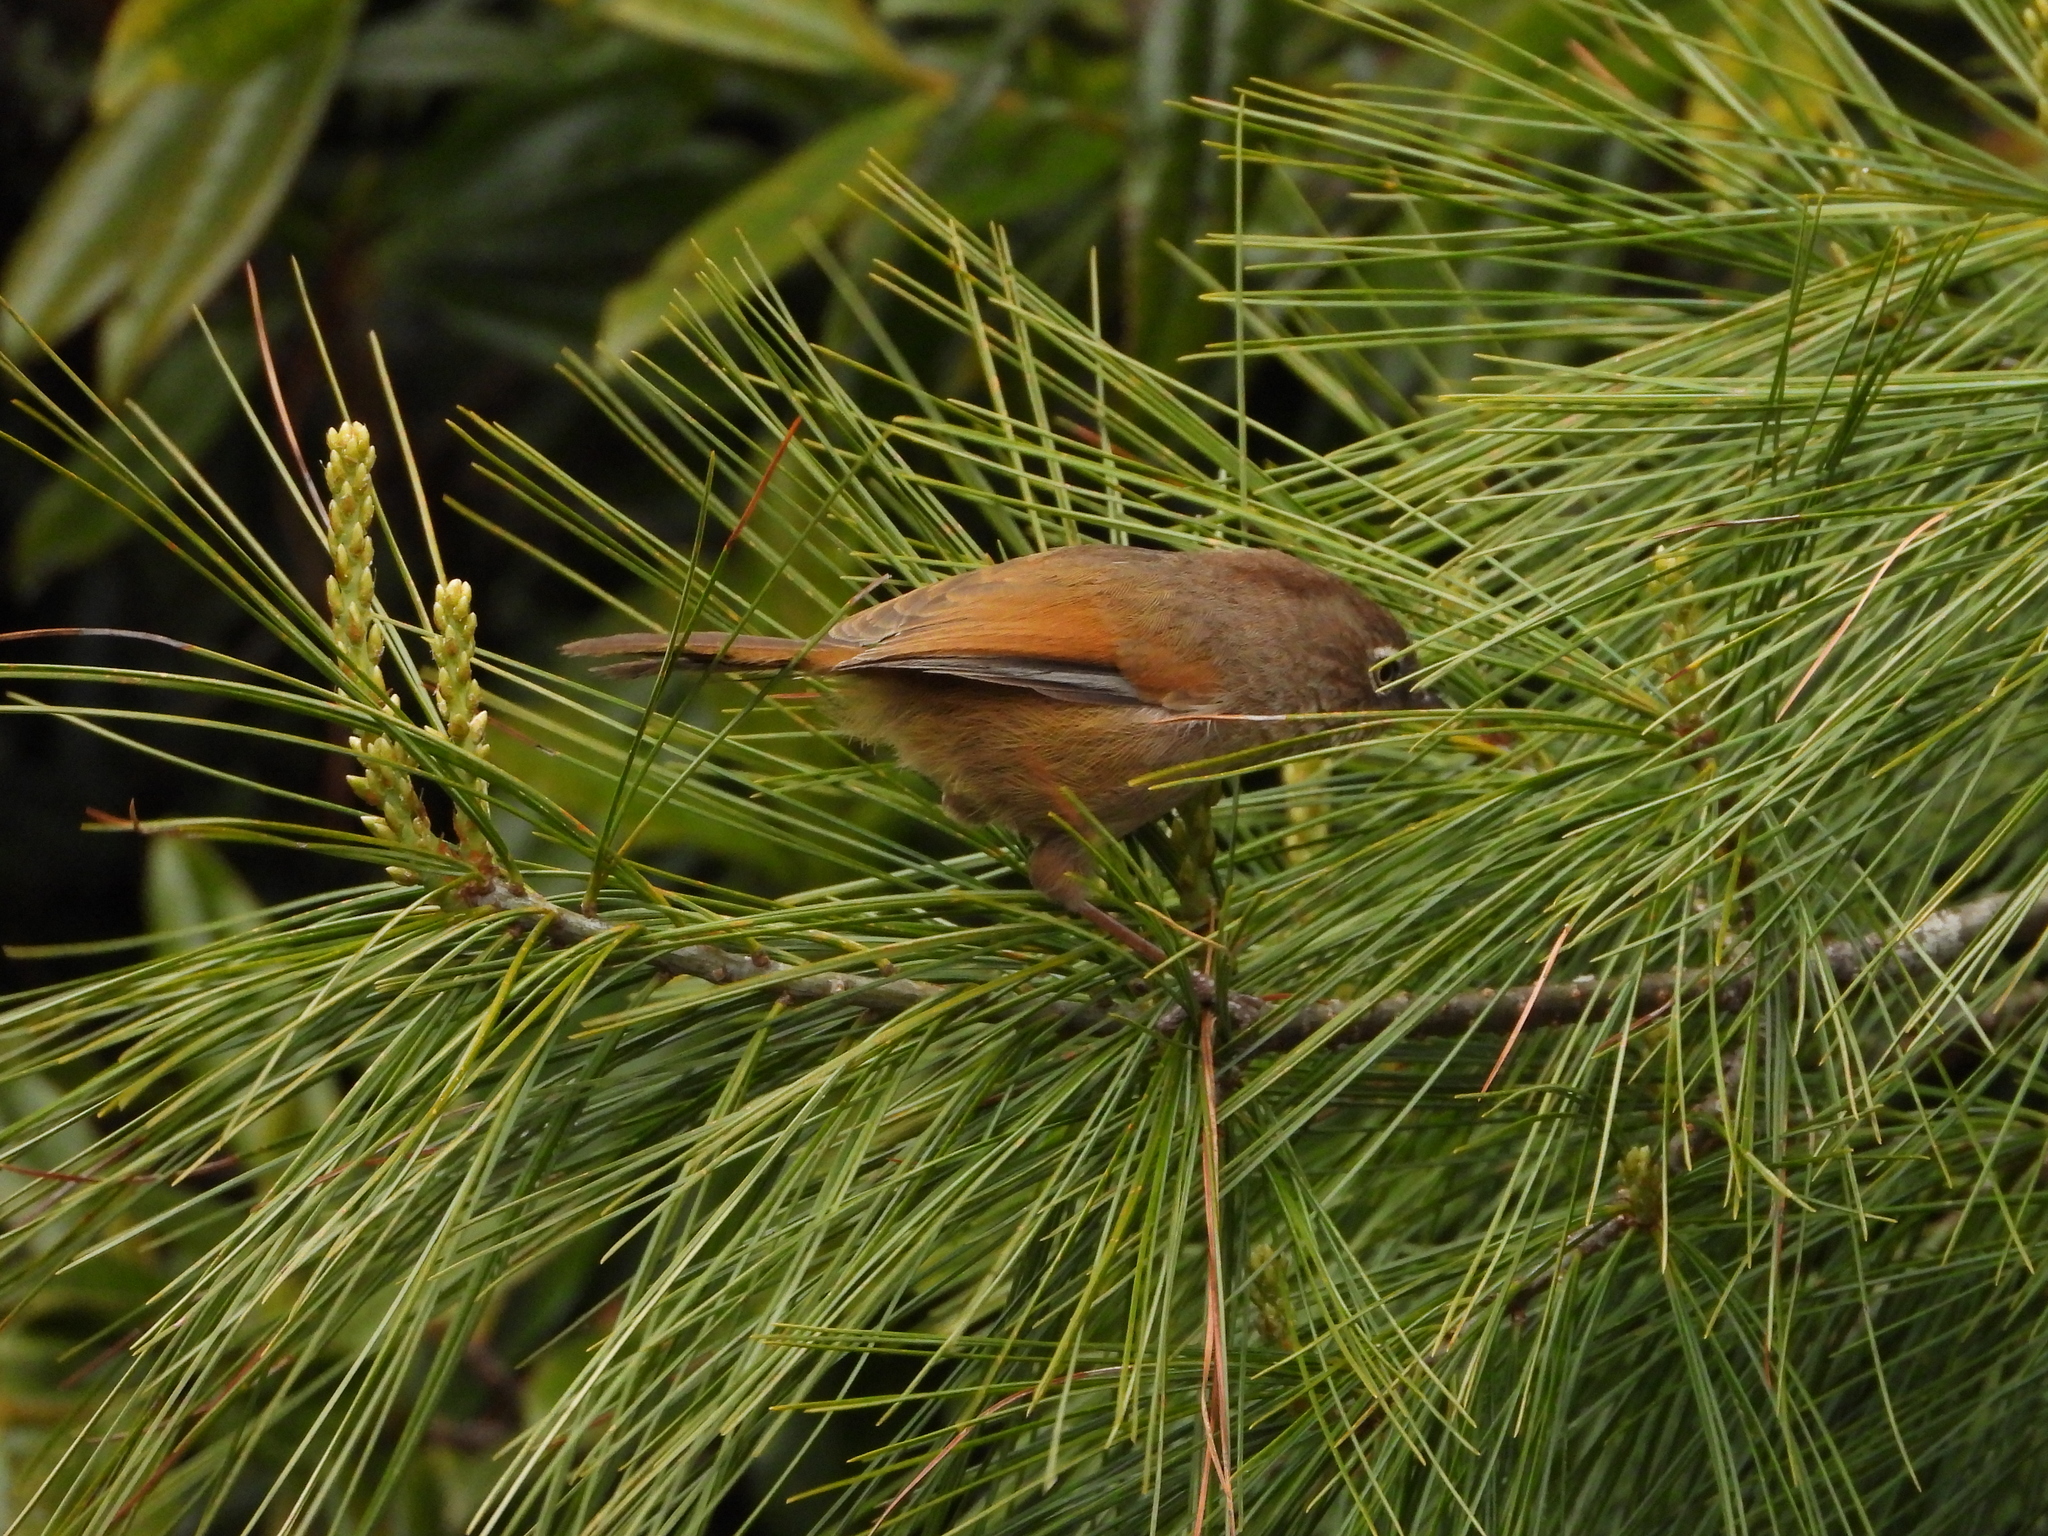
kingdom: Animalia
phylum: Chordata
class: Aves
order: Passeriformes
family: Sylviidae
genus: Fulvetta
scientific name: Fulvetta formosana
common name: Taiwan fulvetta
